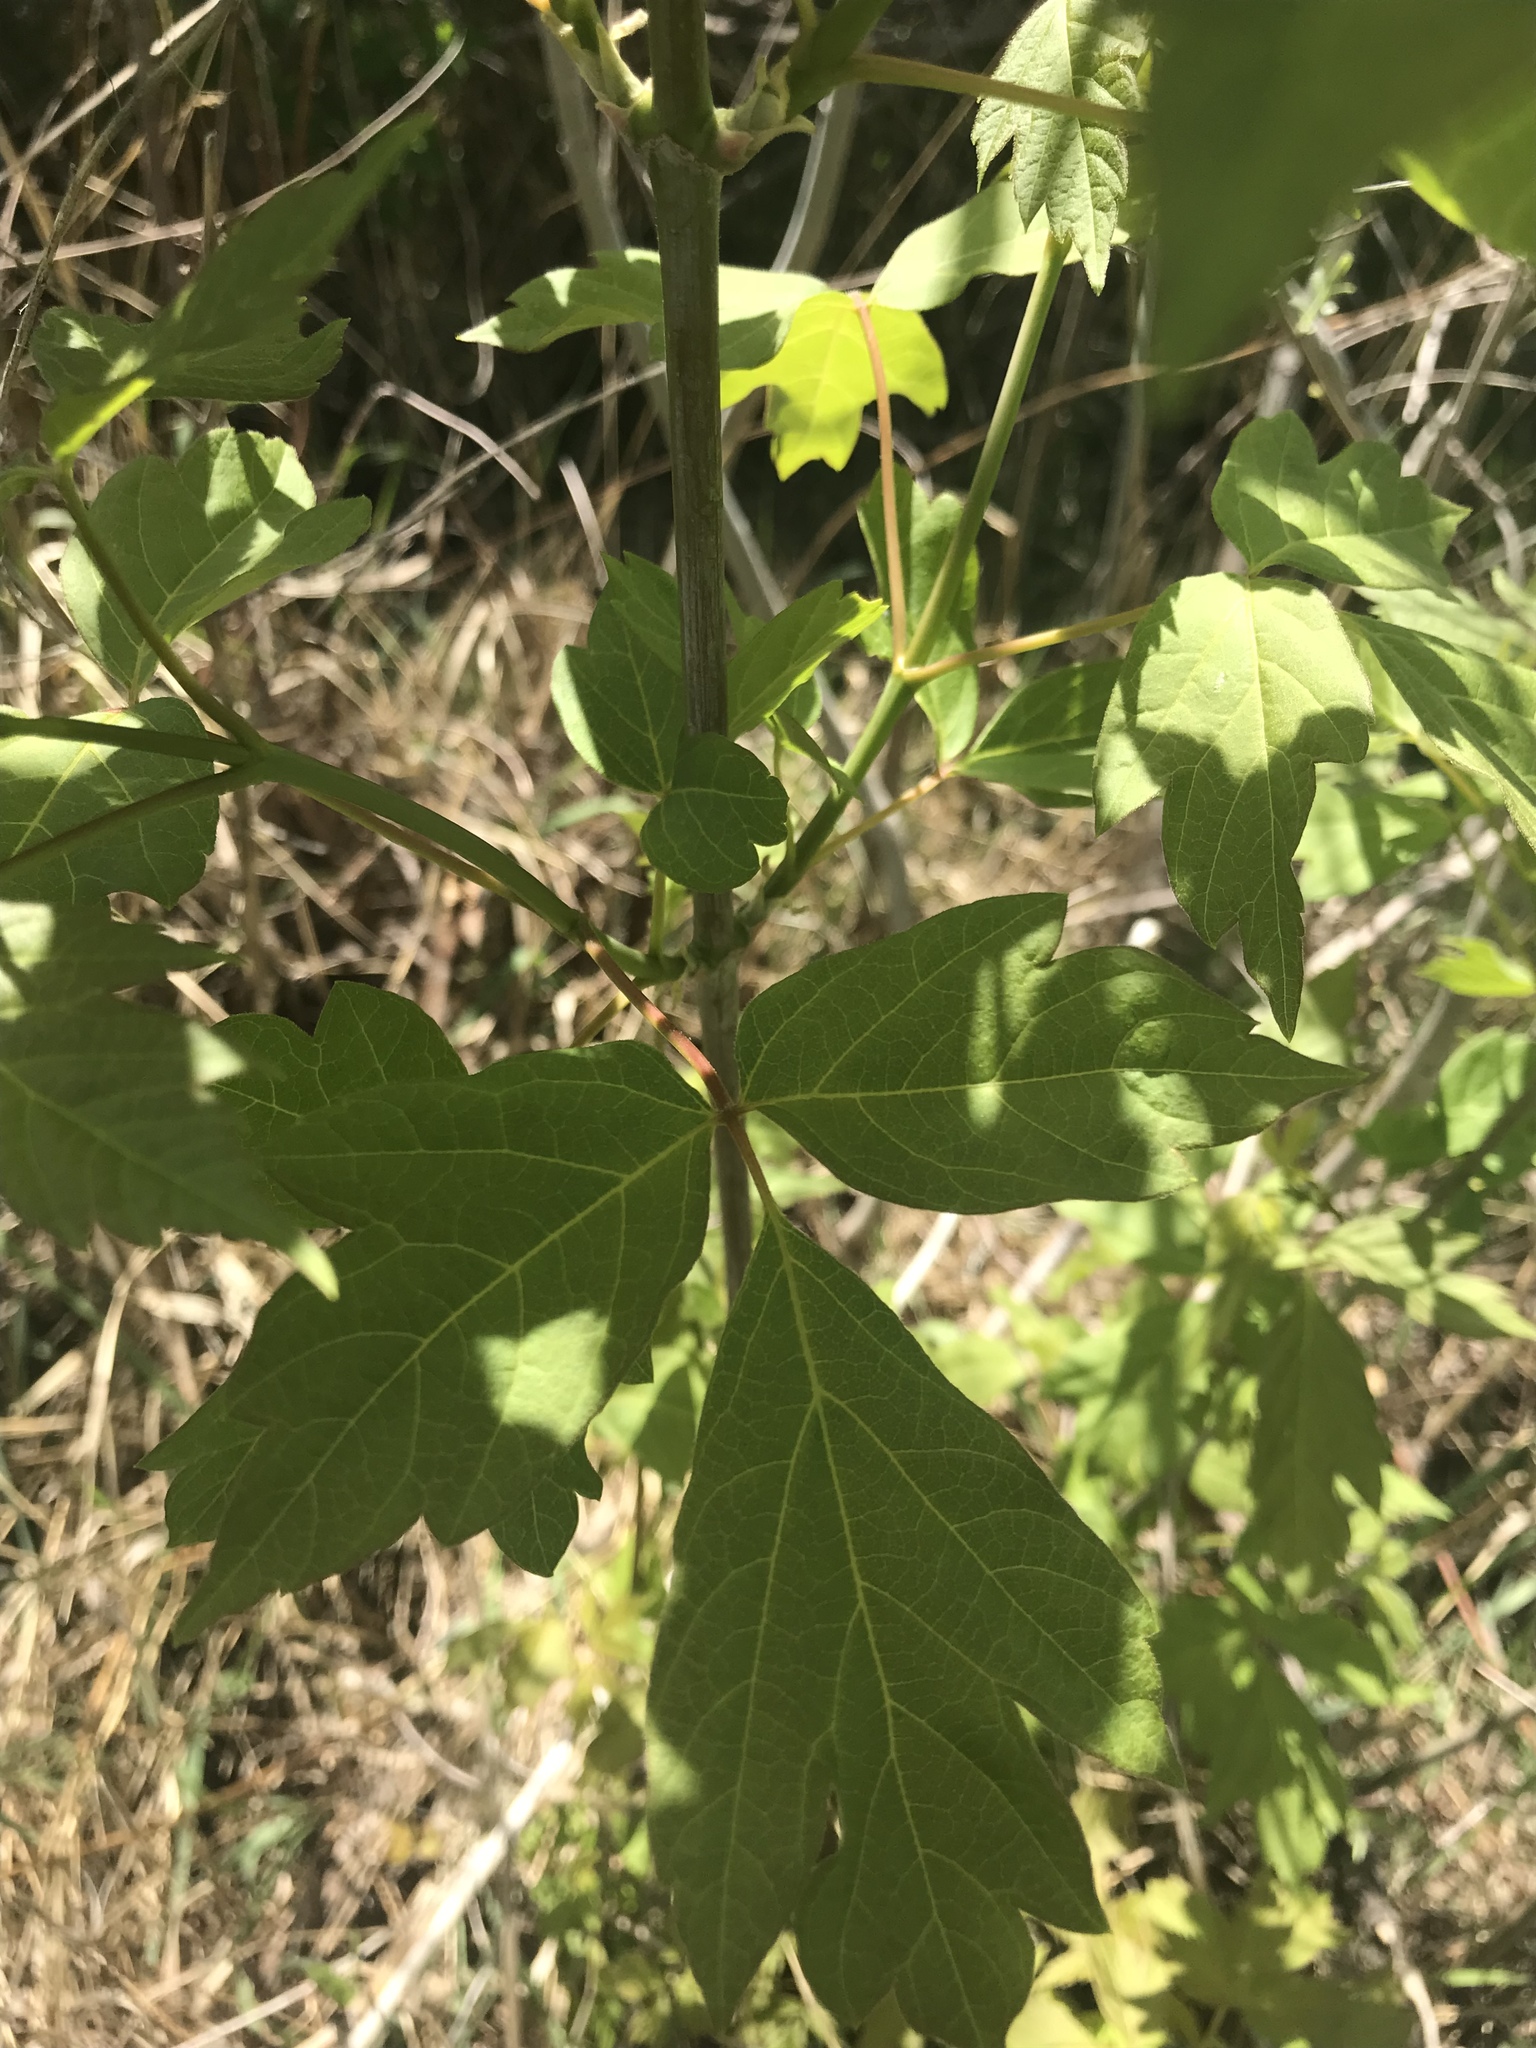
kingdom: Plantae
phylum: Tracheophyta
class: Magnoliopsida
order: Sapindales
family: Sapindaceae
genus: Acer
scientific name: Acer negundo
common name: Ashleaf maple
